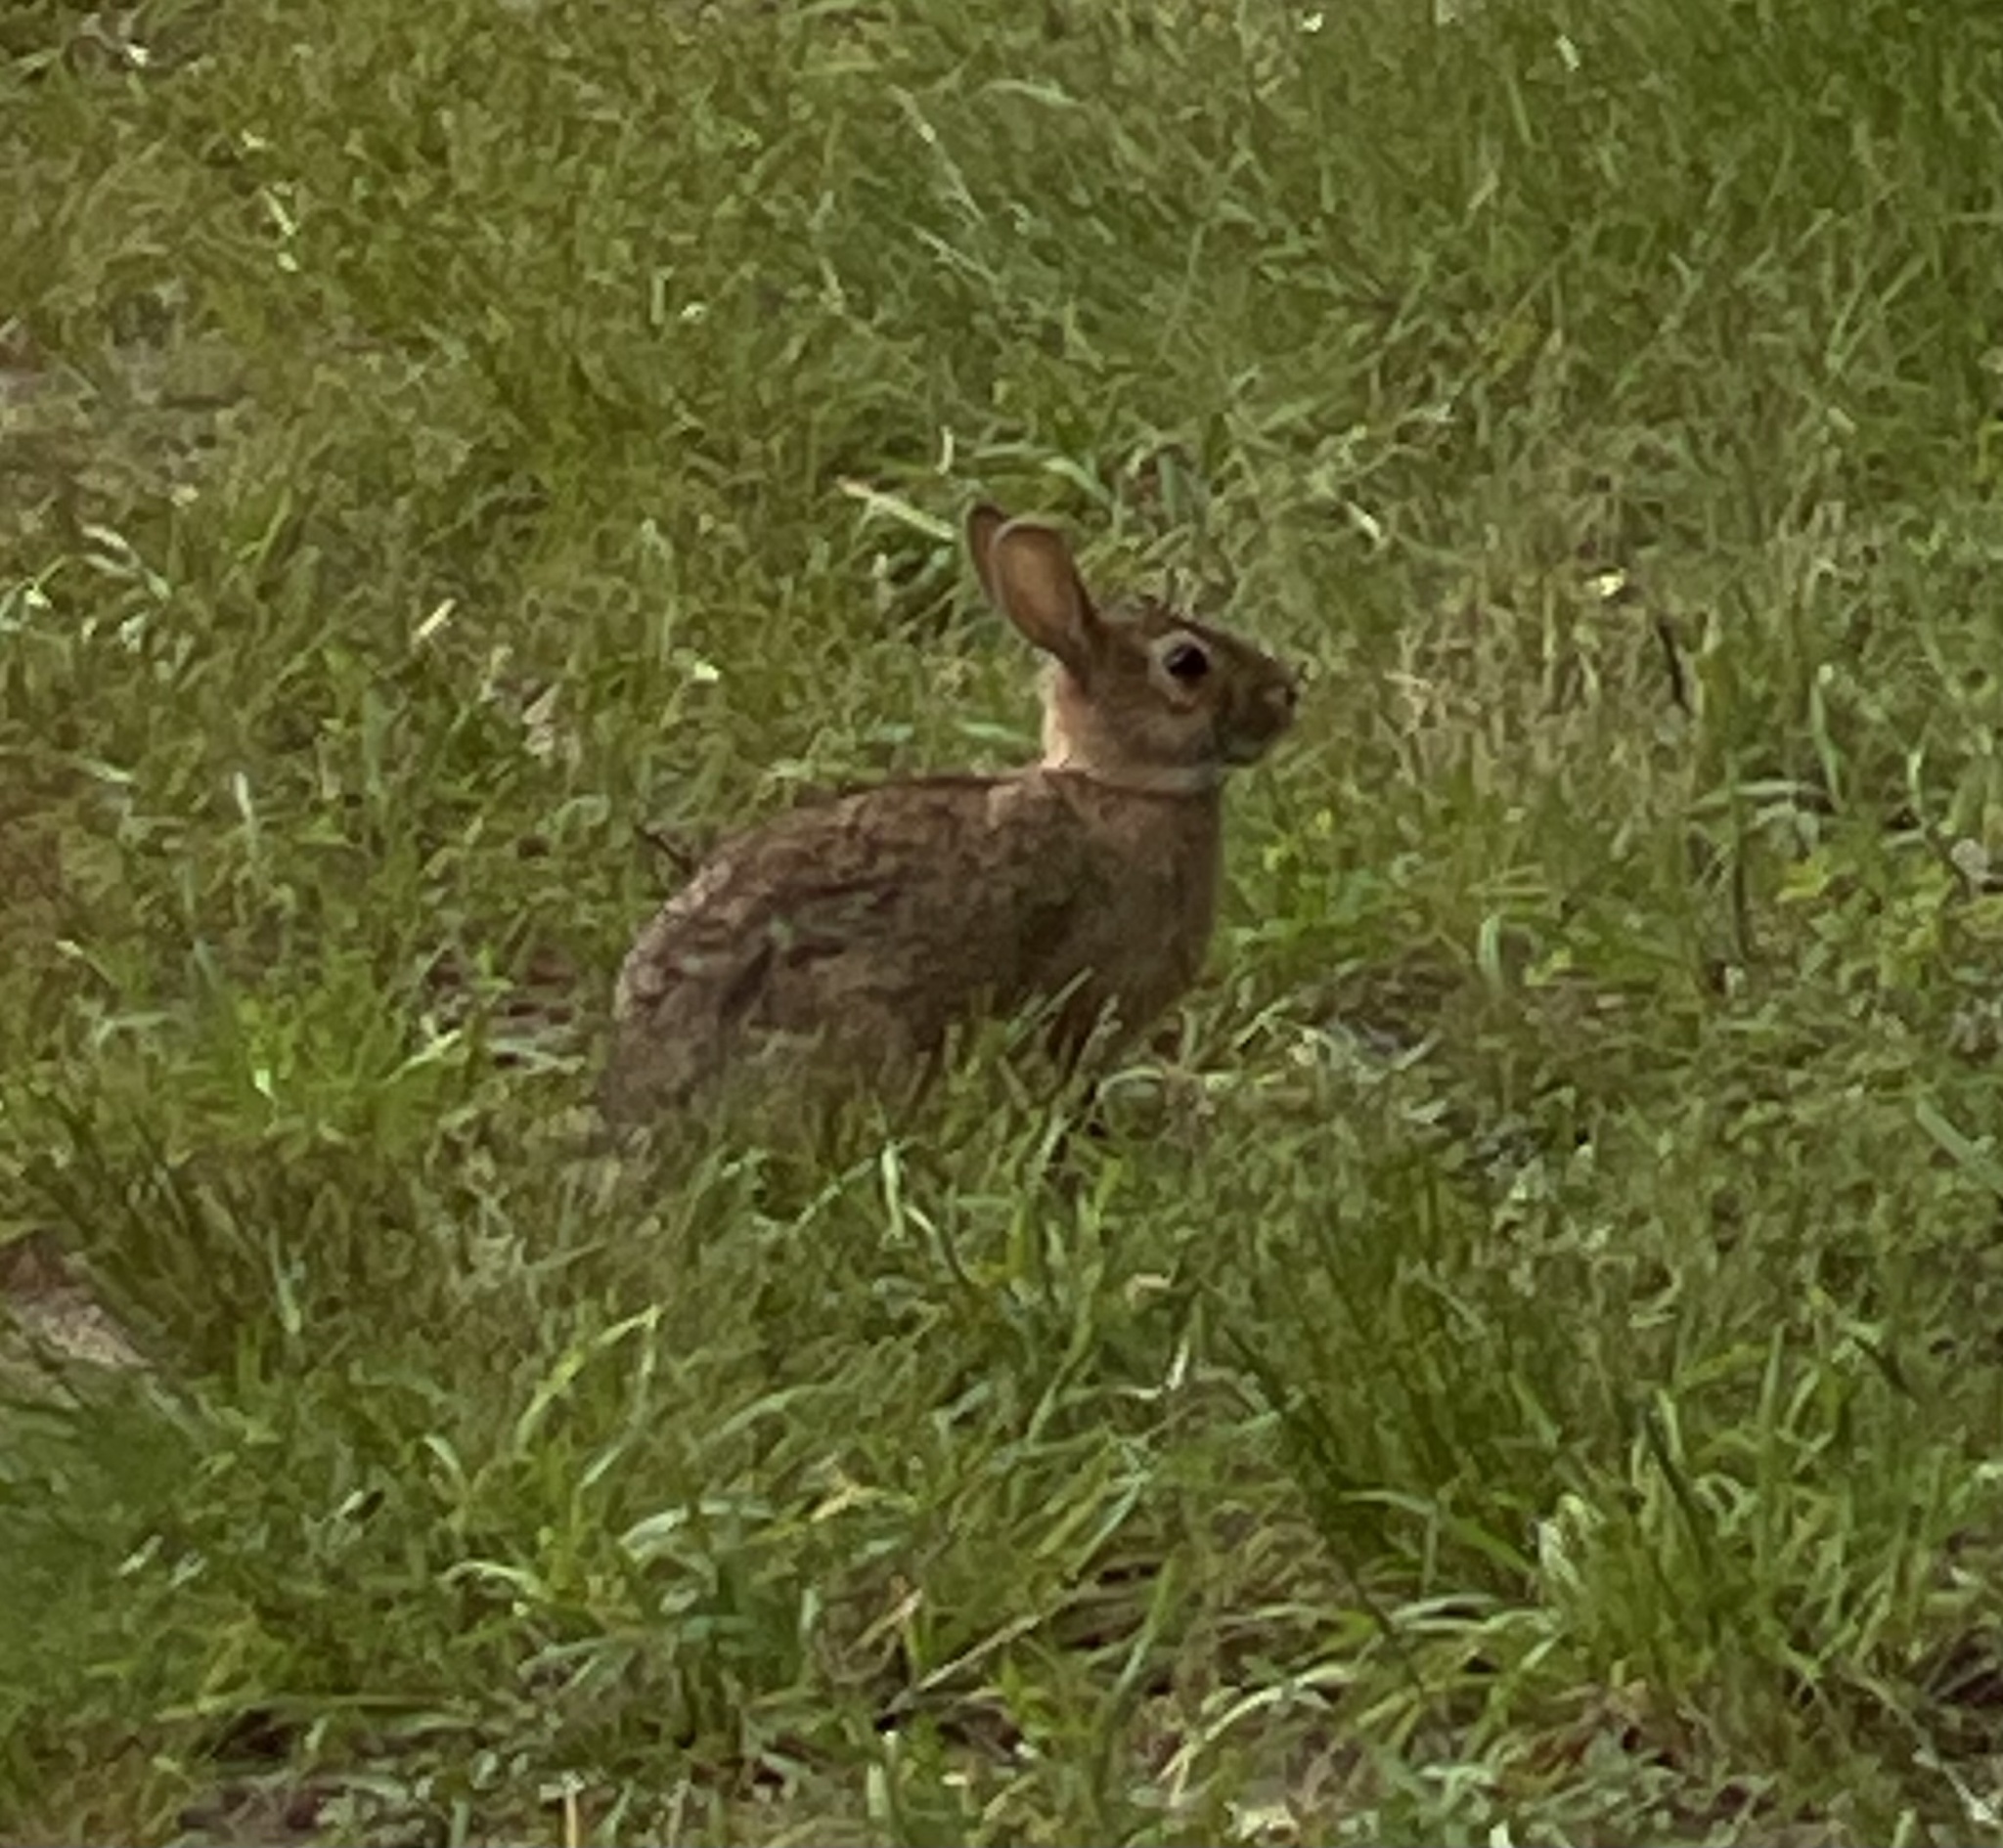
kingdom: Animalia
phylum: Chordata
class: Mammalia
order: Lagomorpha
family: Leporidae
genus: Sylvilagus
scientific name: Sylvilagus floridanus
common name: Eastern cottontail
